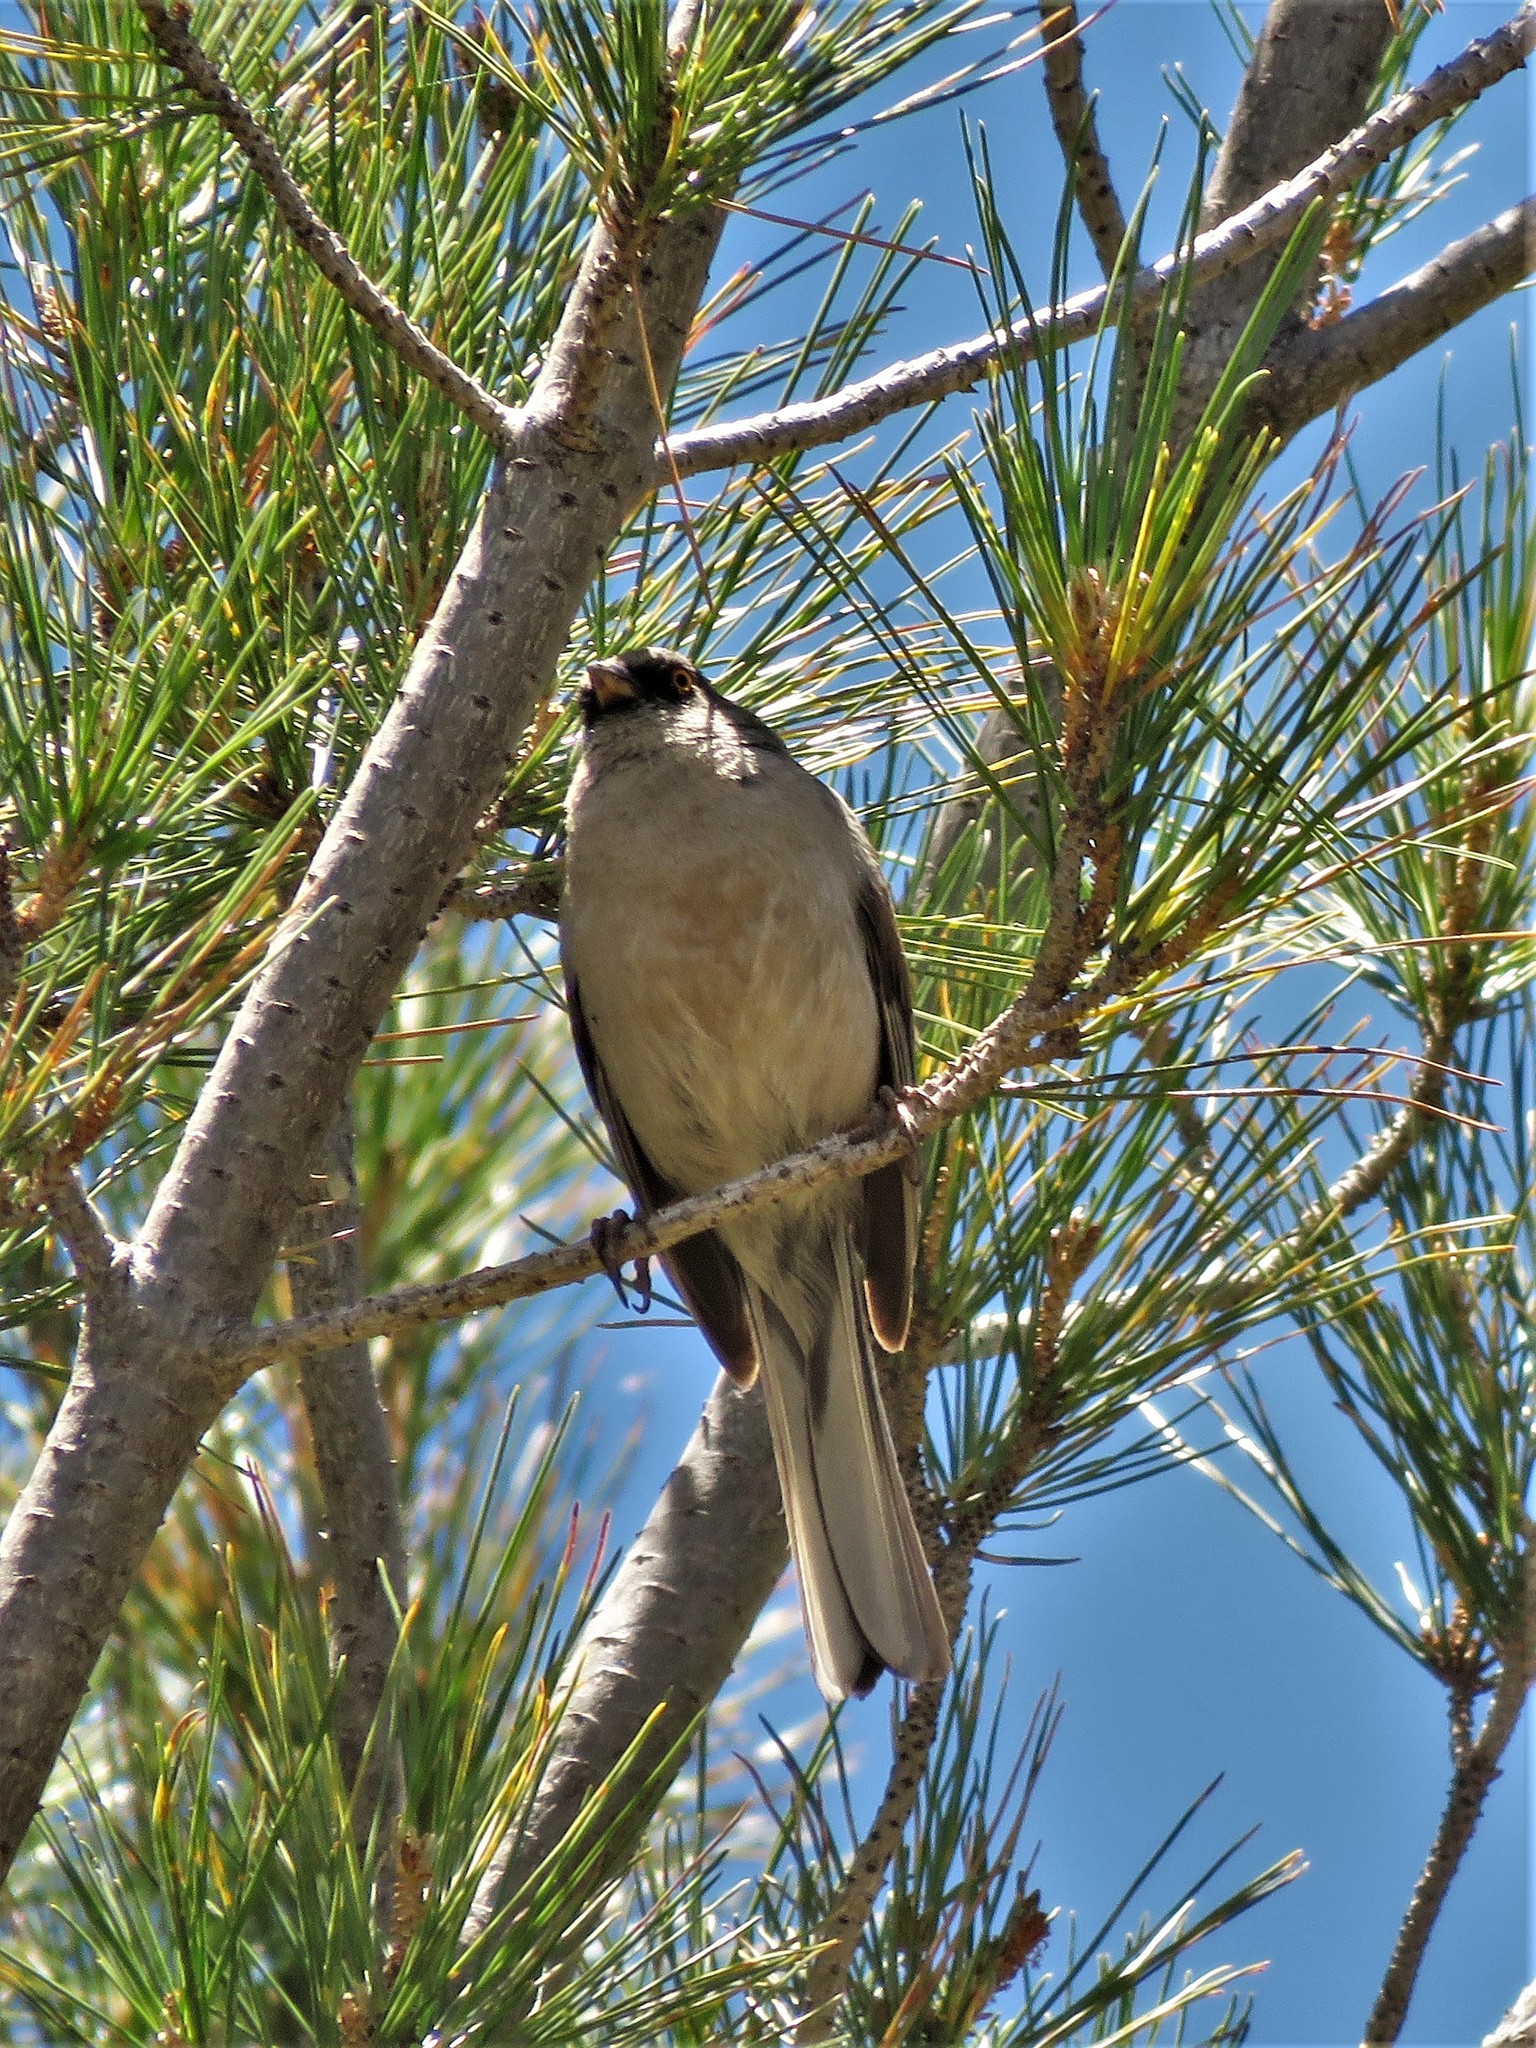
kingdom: Animalia
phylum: Chordata
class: Aves
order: Passeriformes
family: Passerellidae
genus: Junco
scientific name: Junco phaeonotus
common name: Yellow-eyed junco
